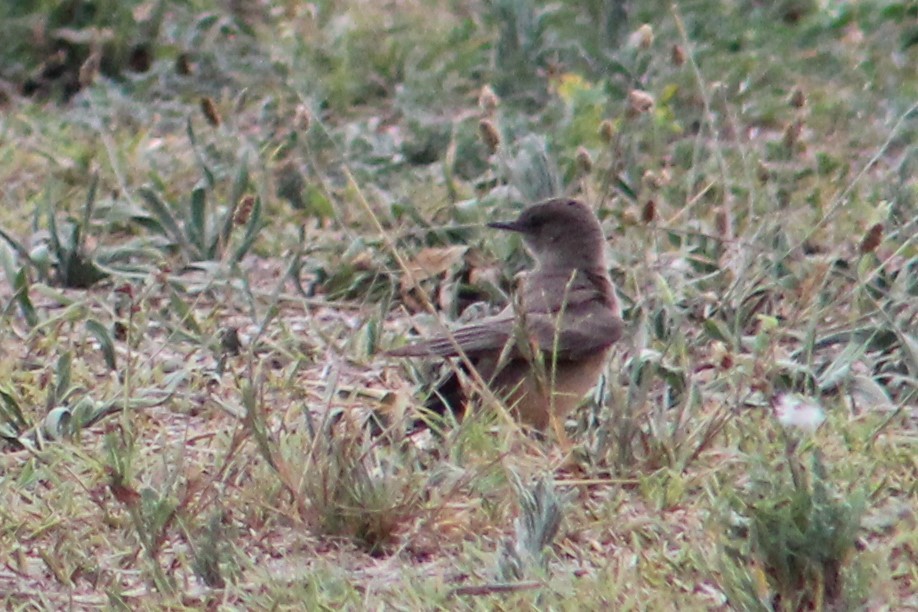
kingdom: Animalia
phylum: Chordata
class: Aves
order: Passeriformes
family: Tyrannidae
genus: Sayornis
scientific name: Sayornis saya
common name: Say's phoebe
